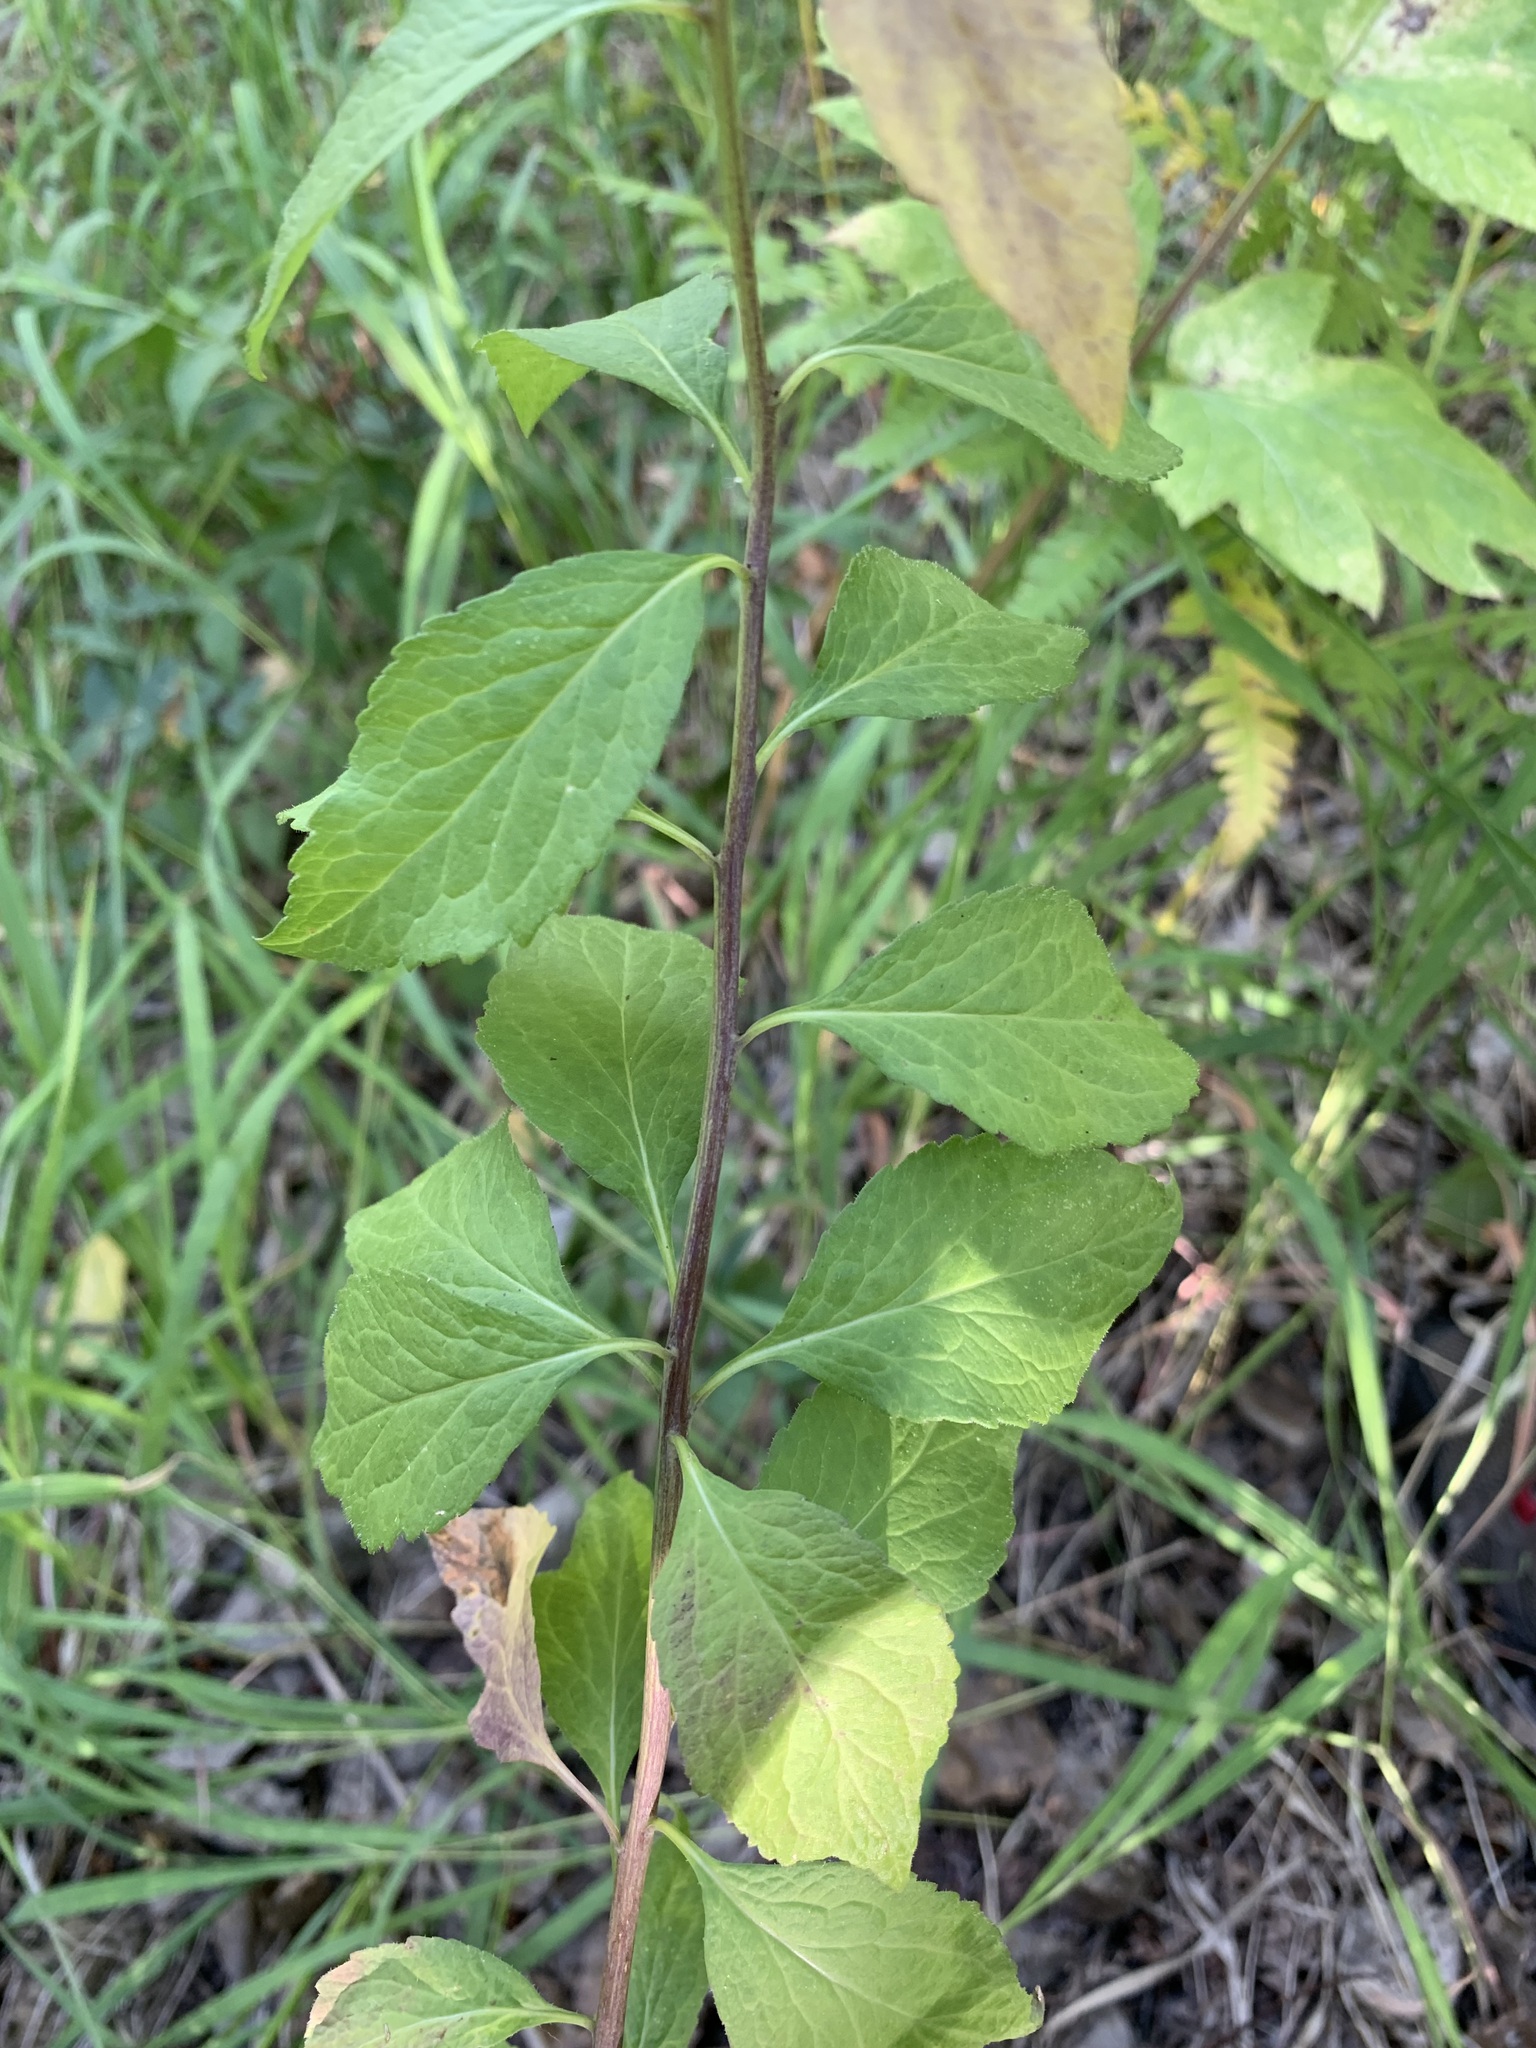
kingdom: Plantae
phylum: Tracheophyta
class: Magnoliopsida
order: Asterales
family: Campanulaceae
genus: Adenophora
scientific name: Adenophora liliifolia
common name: Lilyleaf ladybells
